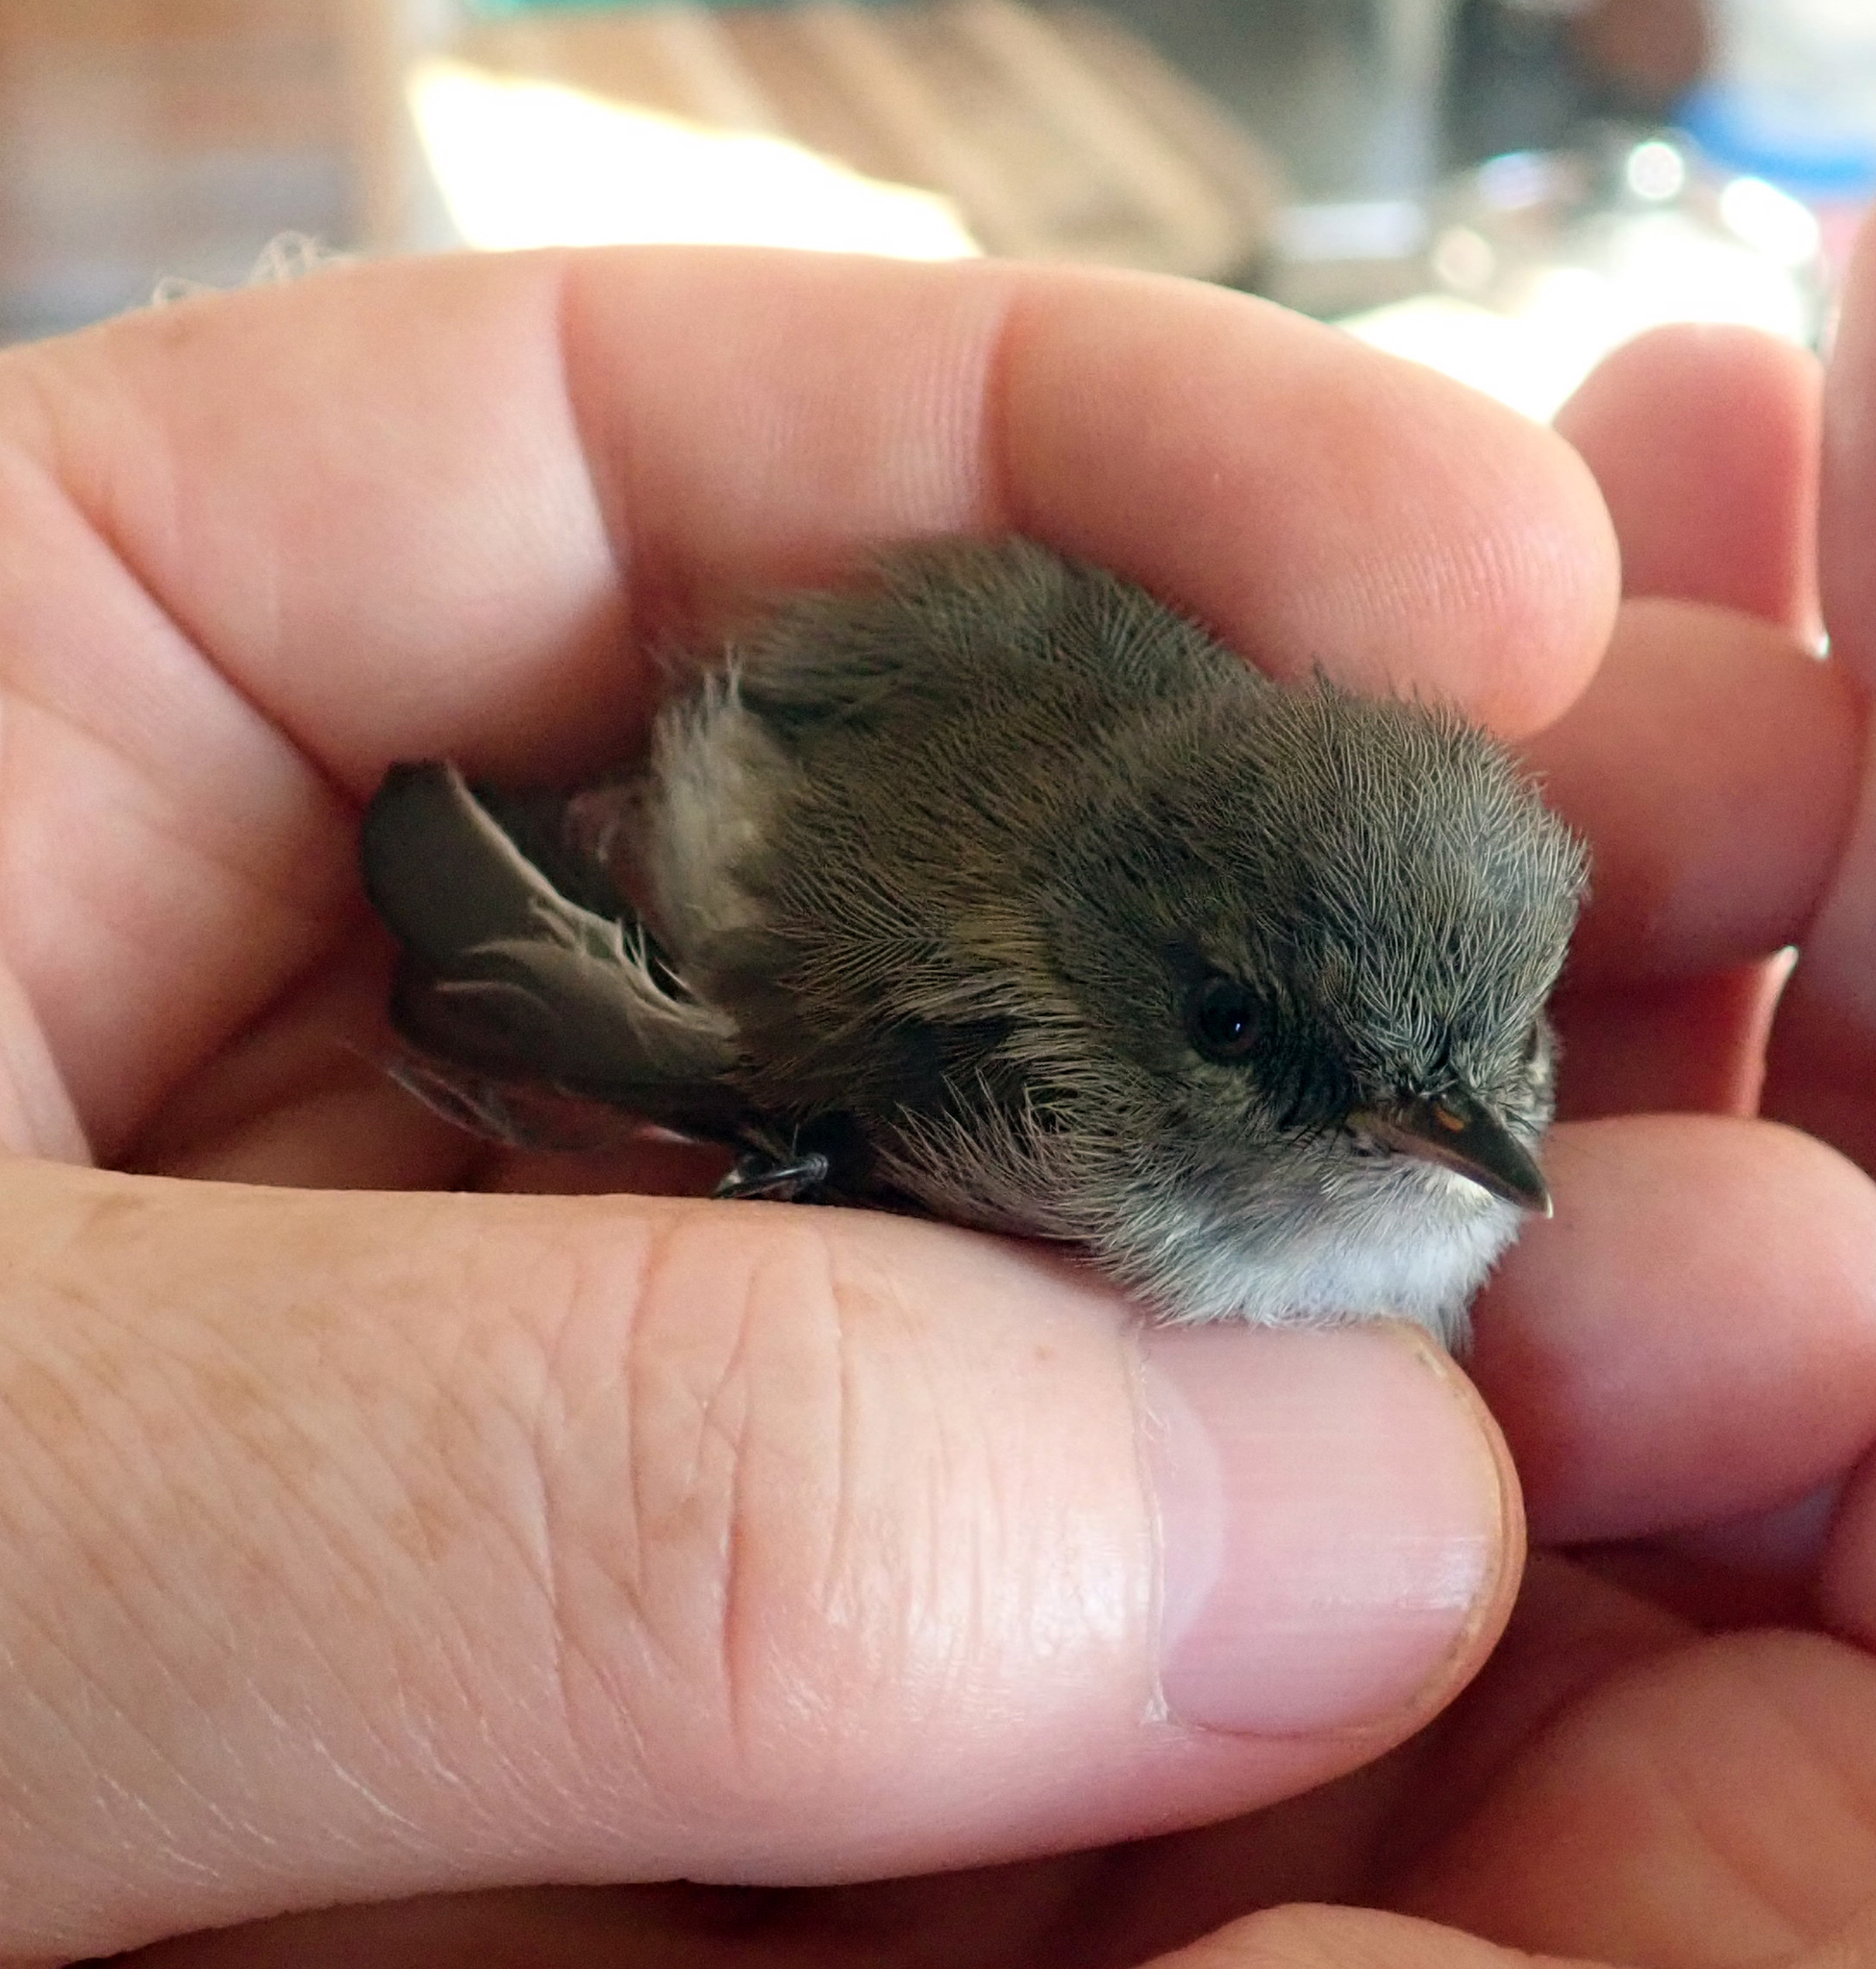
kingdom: Animalia
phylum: Chordata
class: Aves
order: Passeriformes
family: Acanthizidae
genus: Gerygone
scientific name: Gerygone igata
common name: Grey gerygone
